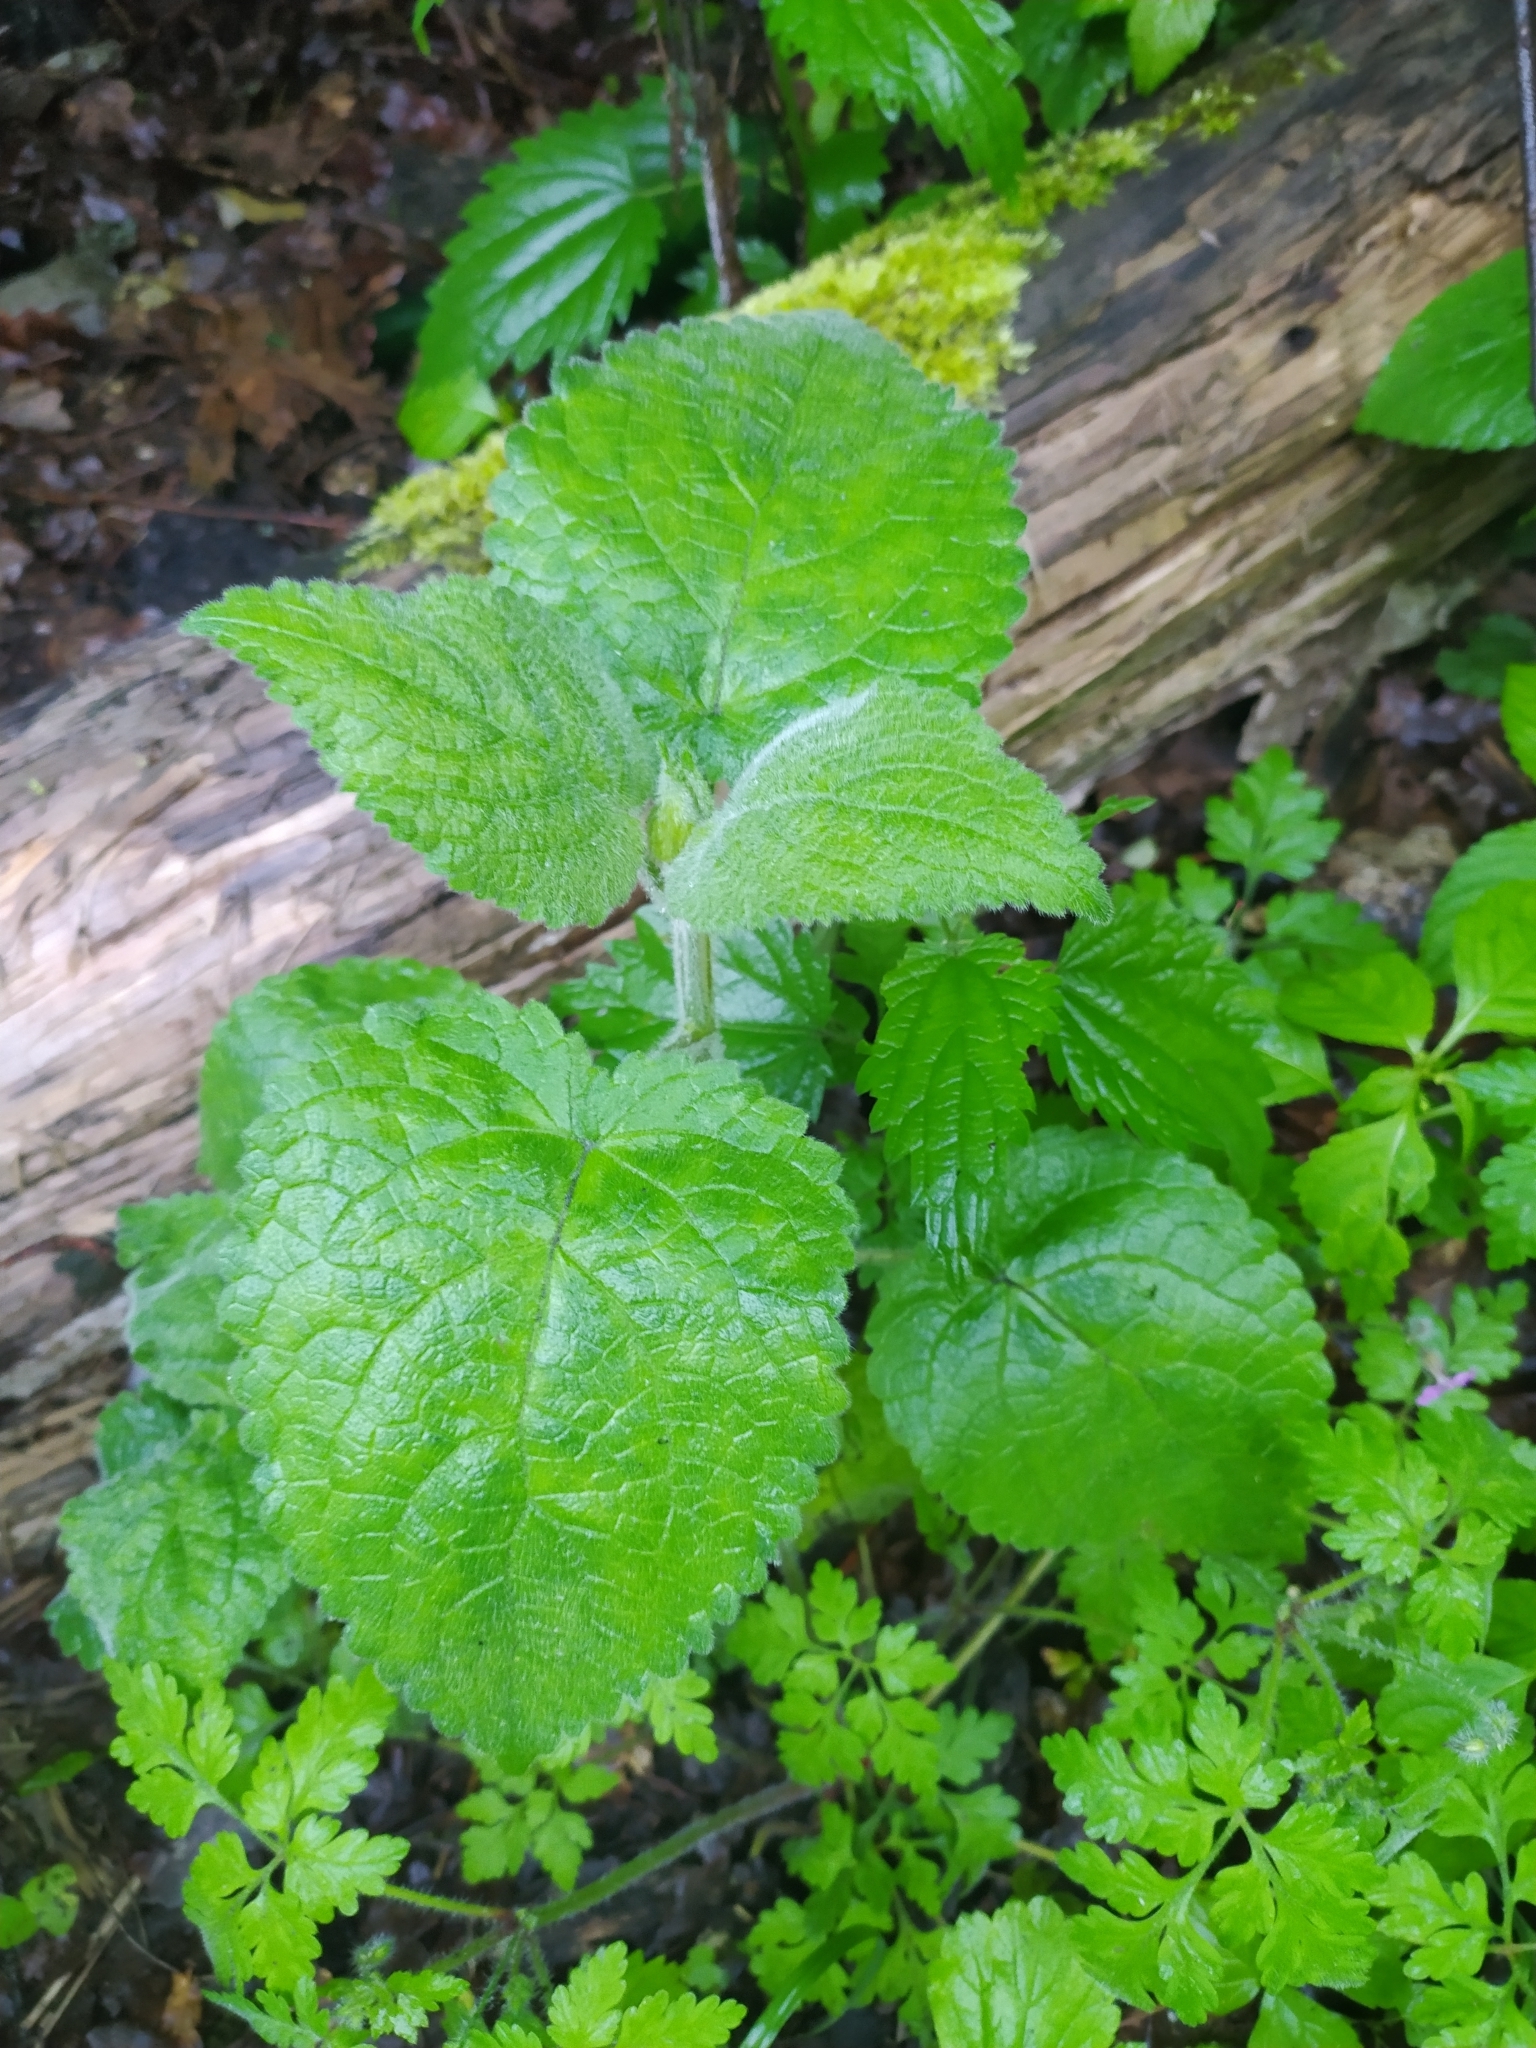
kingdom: Plantae
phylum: Tracheophyta
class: Magnoliopsida
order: Lamiales
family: Lamiaceae
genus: Stachys
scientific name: Stachys sylvatica
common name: Hedge woundwort
